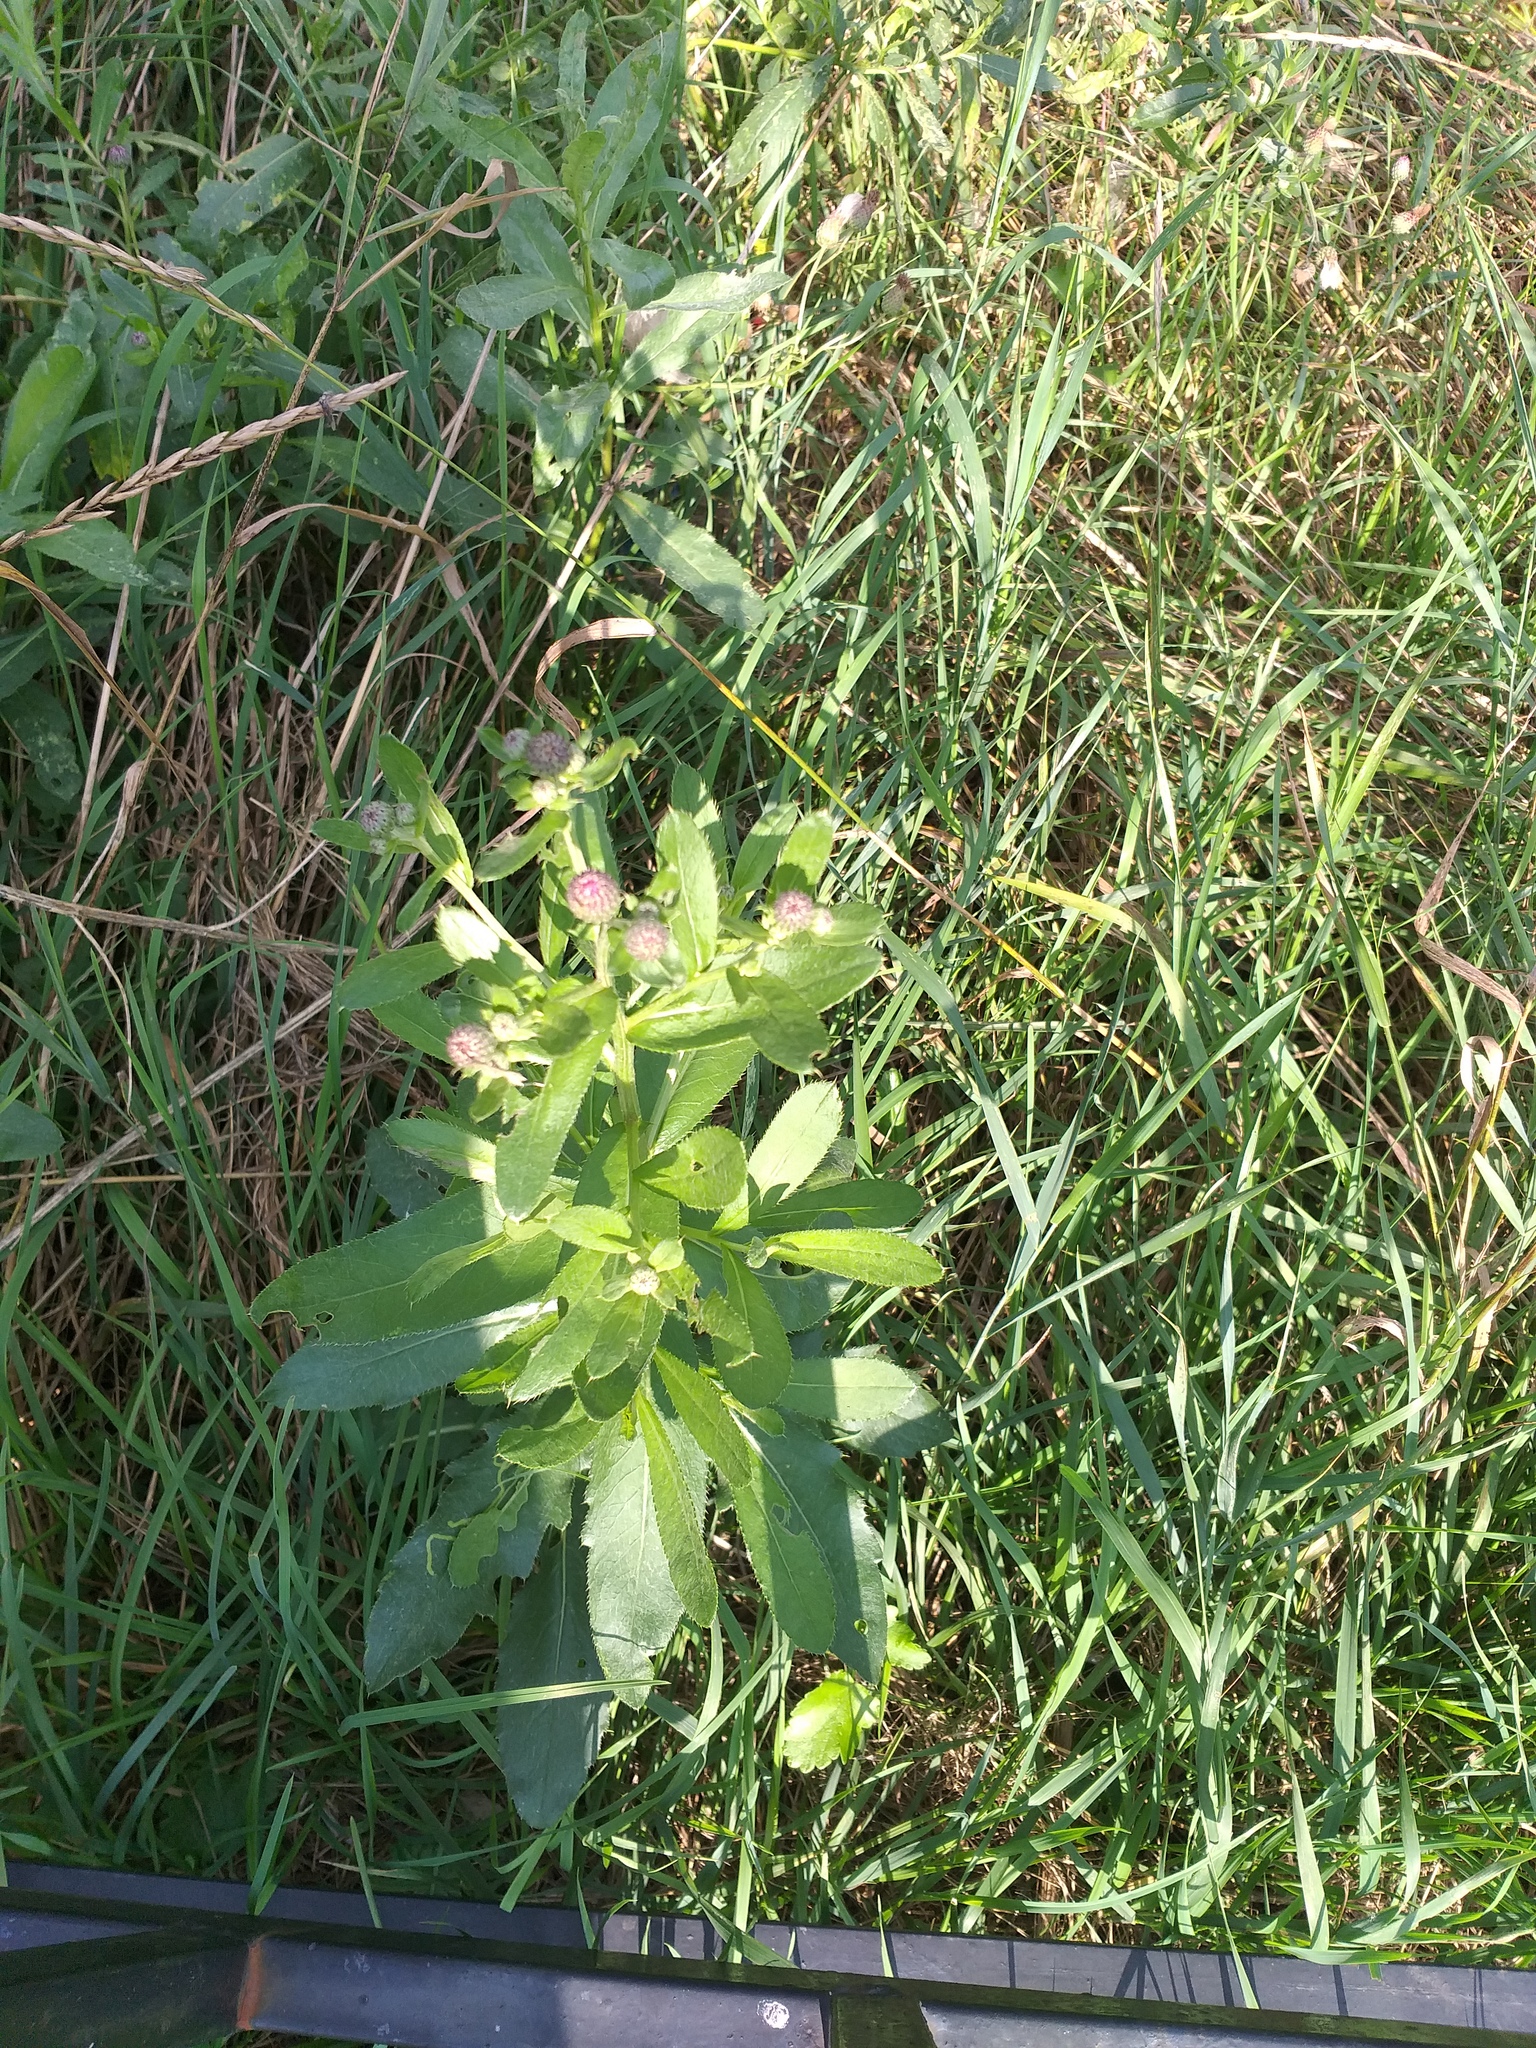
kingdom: Plantae
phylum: Tracheophyta
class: Magnoliopsida
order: Asterales
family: Asteraceae
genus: Cirsium
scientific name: Cirsium arvense
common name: Creeping thistle
